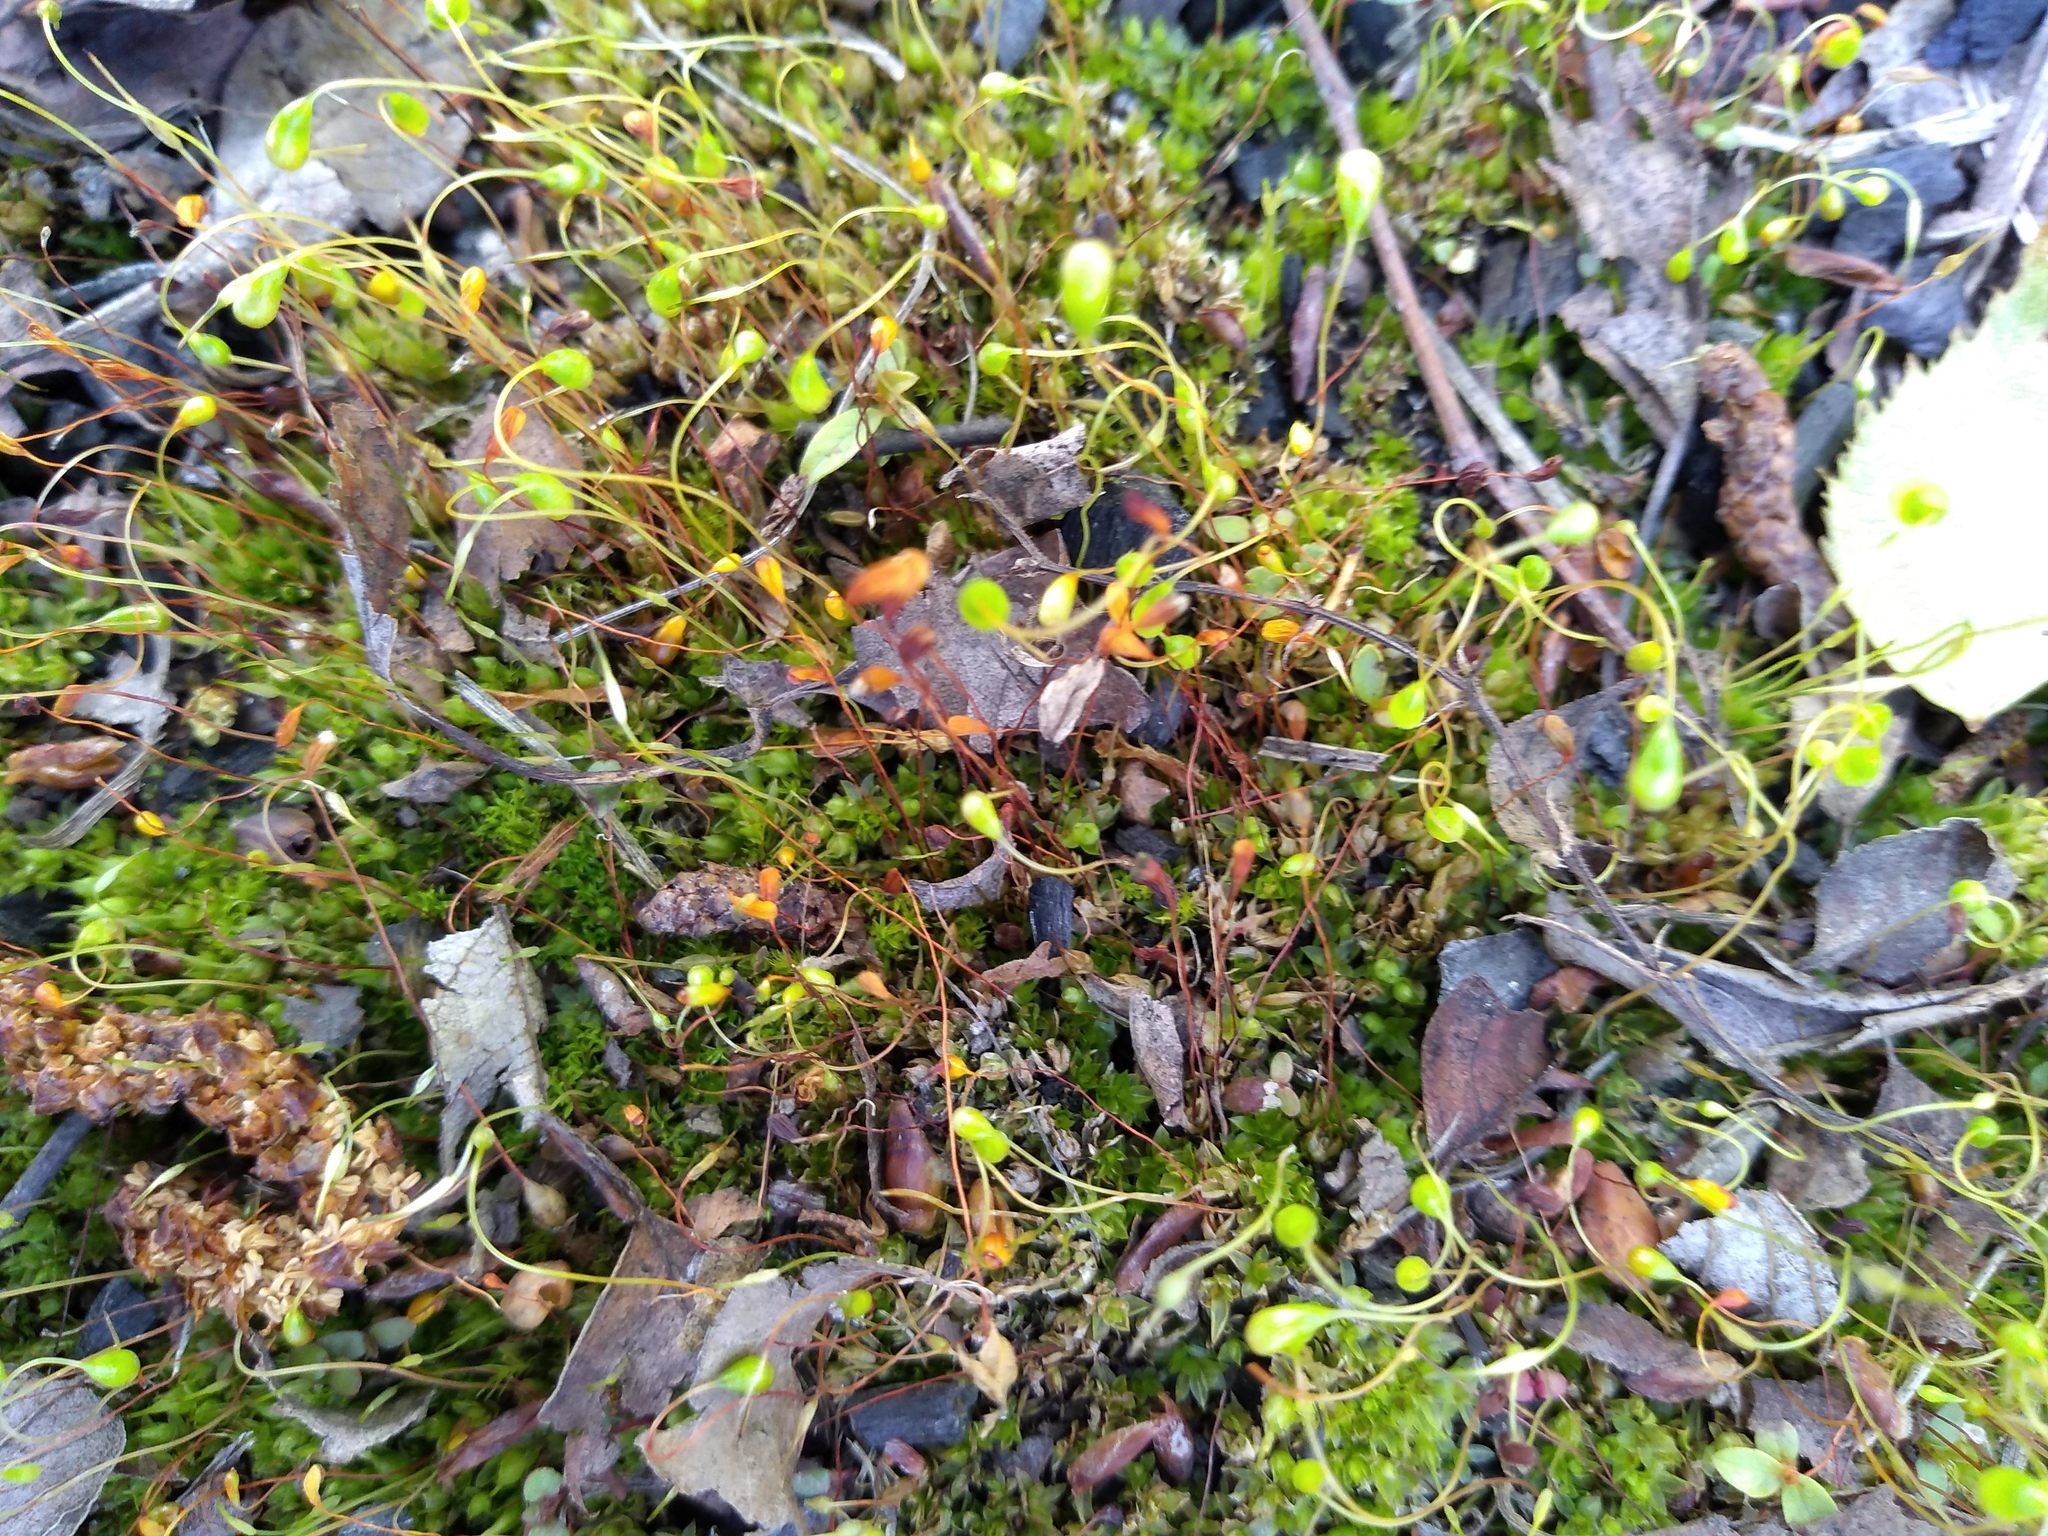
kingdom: Plantae
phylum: Bryophyta
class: Bryopsida
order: Funariales
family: Funariaceae
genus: Funaria
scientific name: Funaria hygrometrica
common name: Common cord moss
